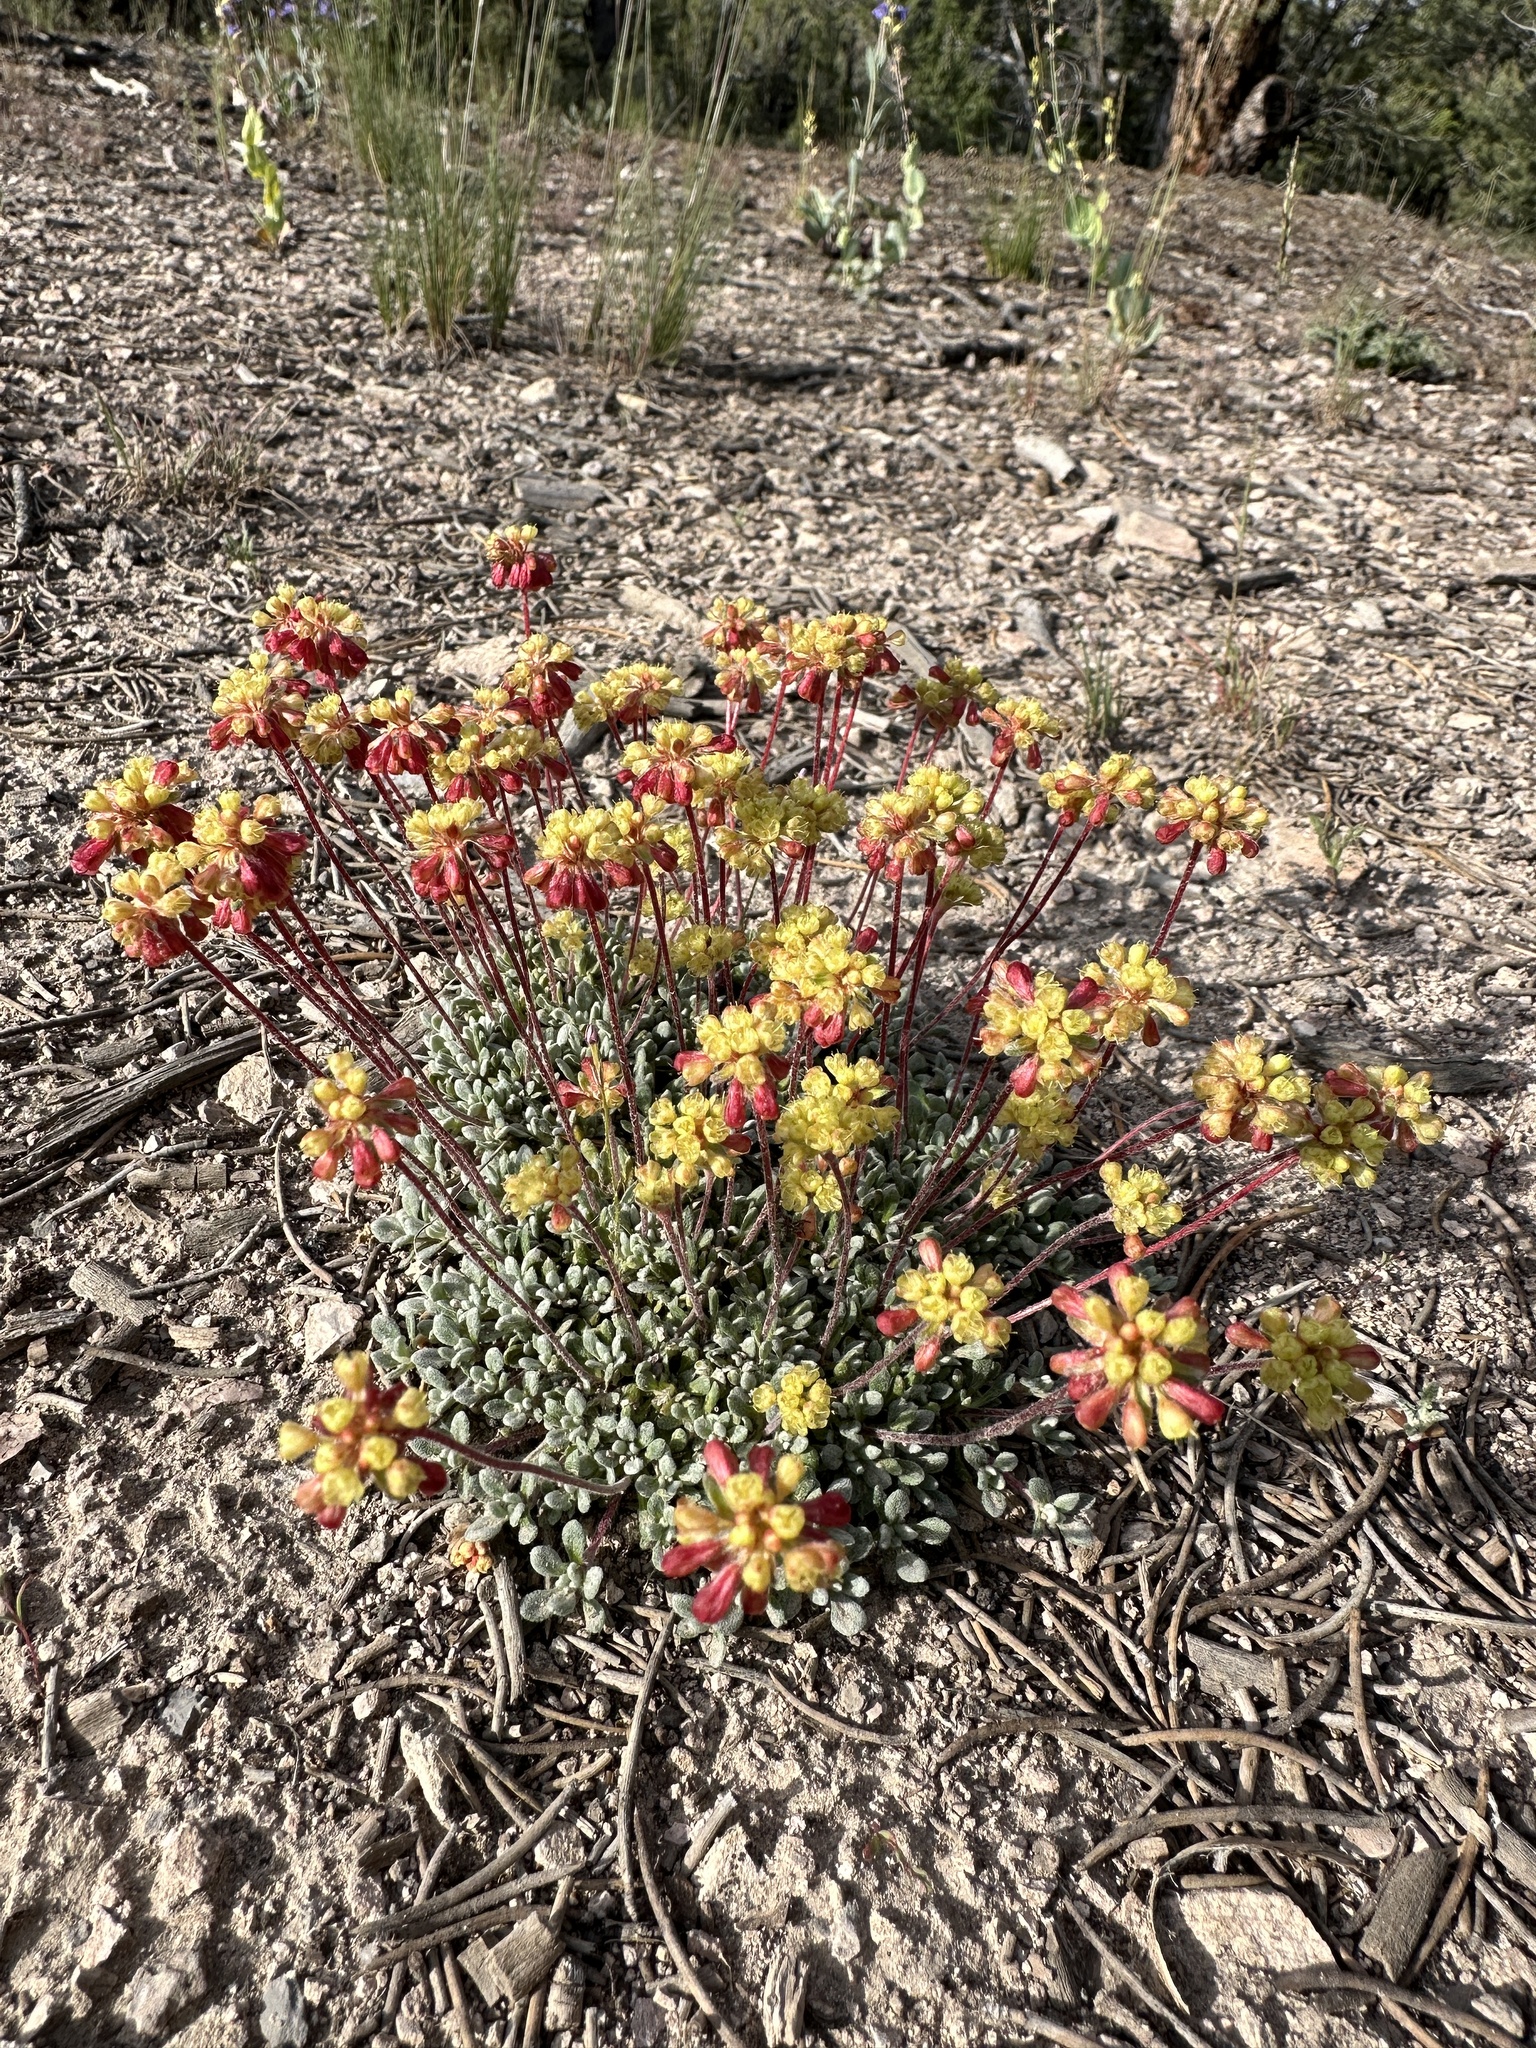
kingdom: Plantae
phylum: Tracheophyta
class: Magnoliopsida
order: Caryophyllales
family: Polygonaceae
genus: Eriogonum
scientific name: Eriogonum caespitosum
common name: Matted wild buckwheat
